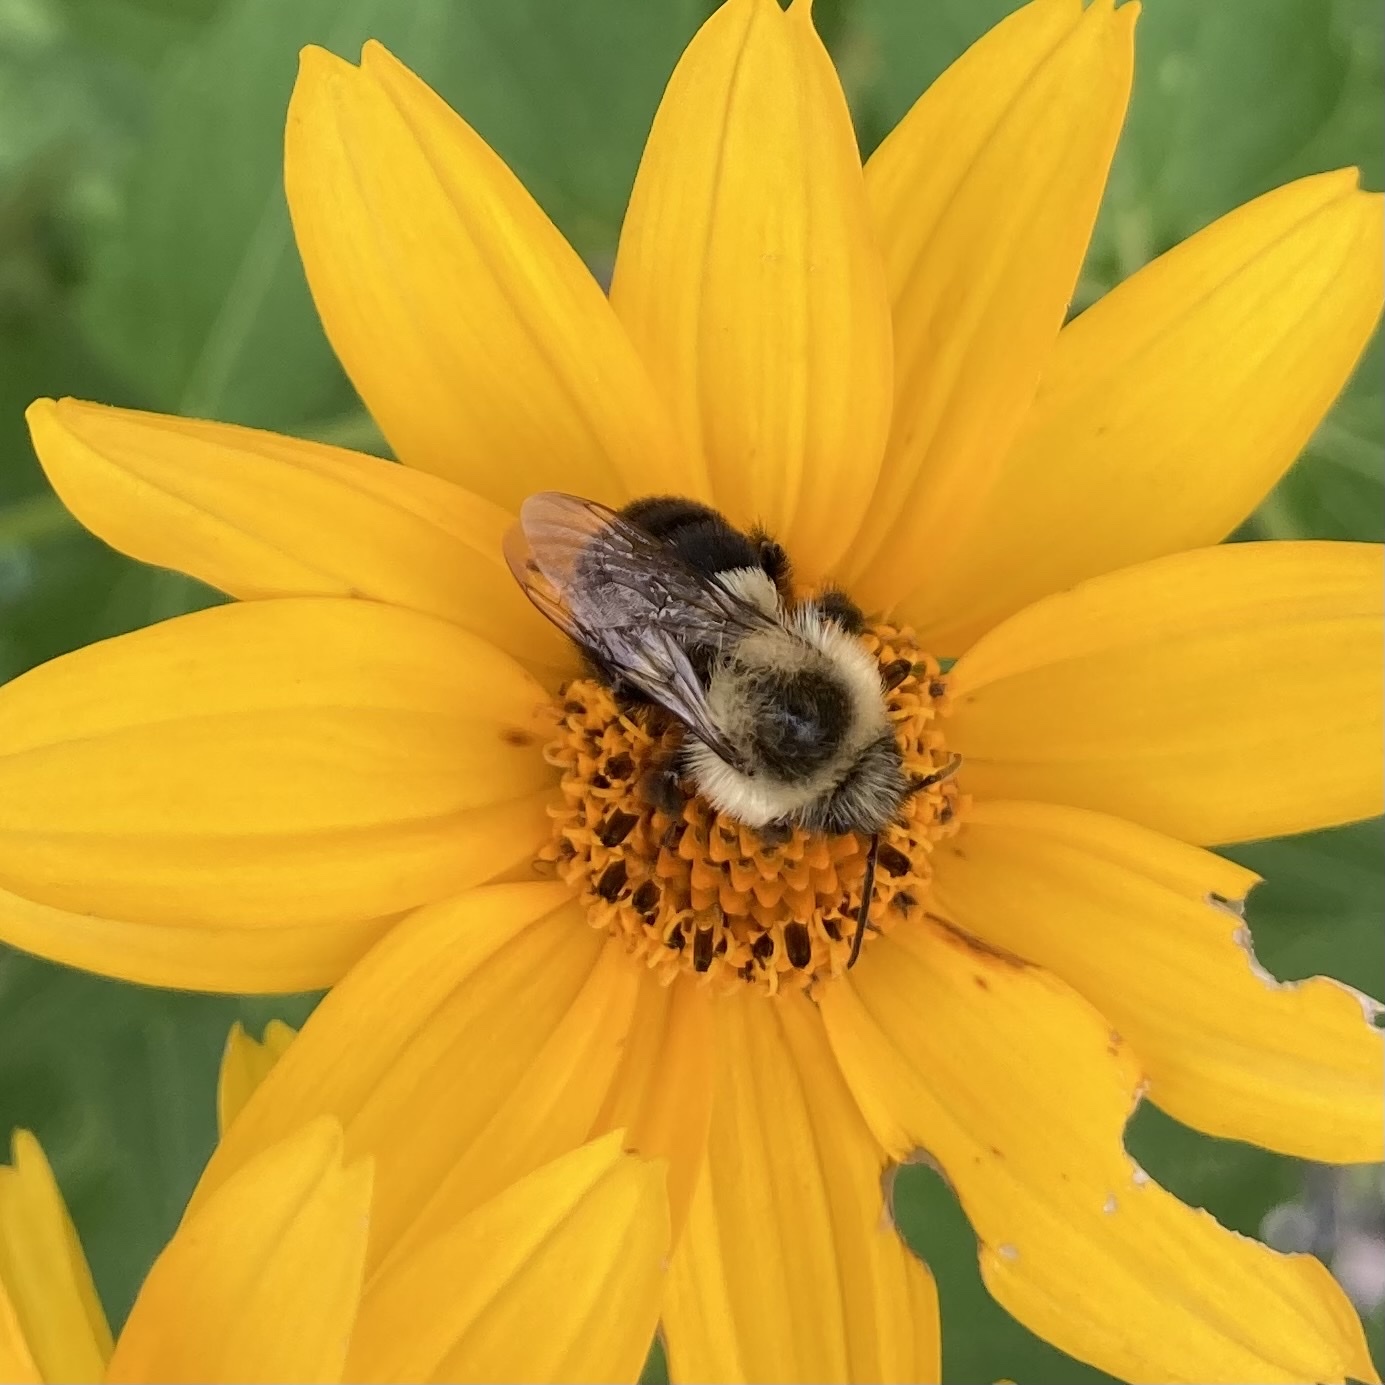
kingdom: Animalia
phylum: Arthropoda
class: Insecta
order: Hymenoptera
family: Apidae
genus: Bombus
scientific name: Bombus impatiens
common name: Common eastern bumble bee
